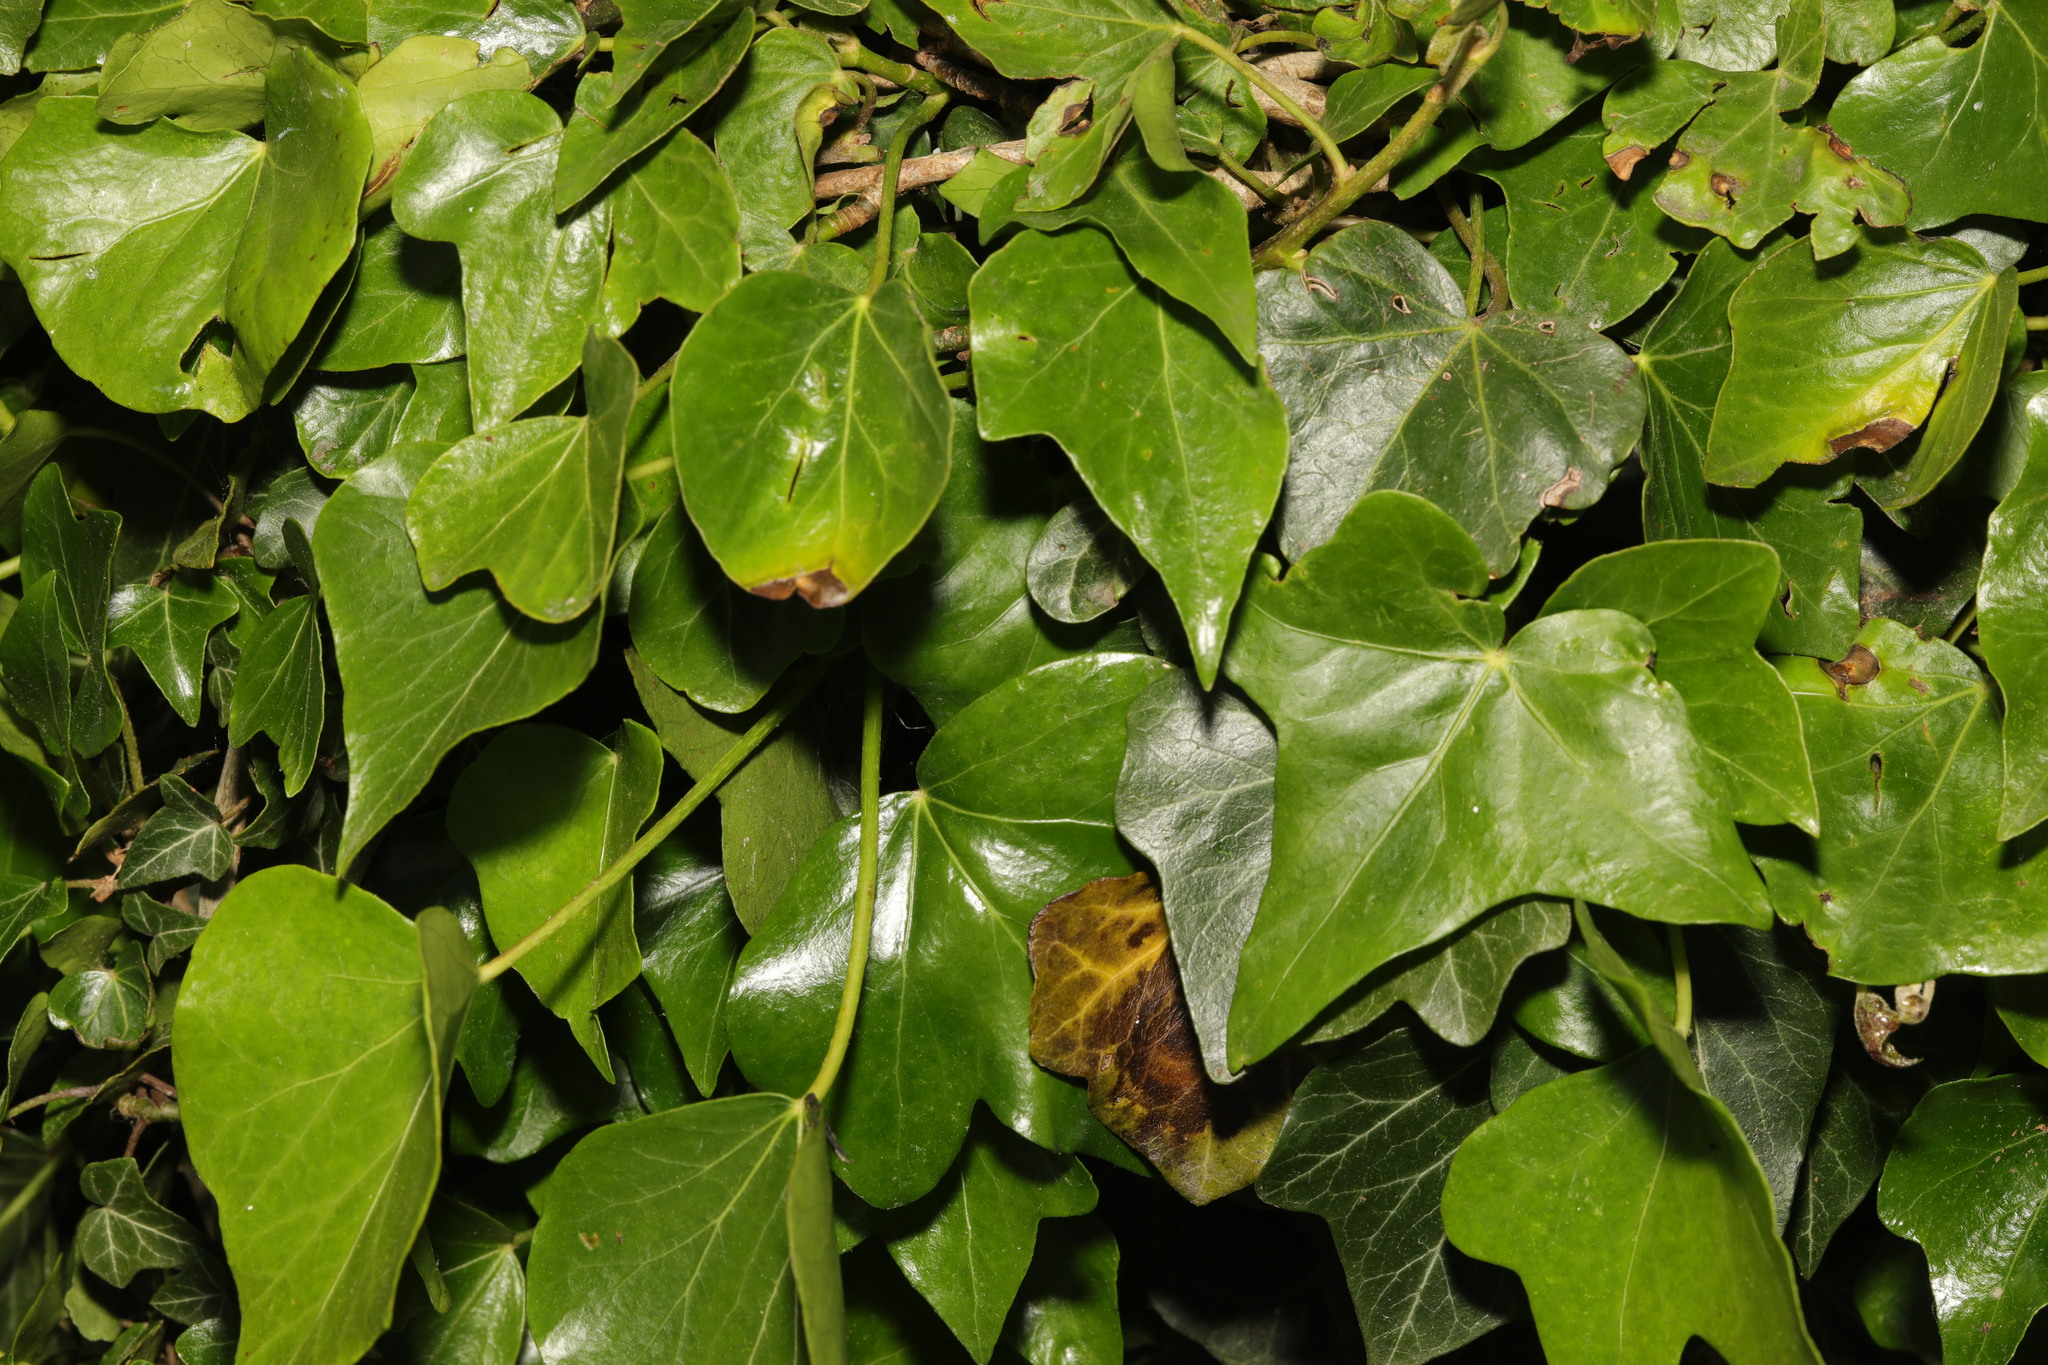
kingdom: Plantae
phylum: Tracheophyta
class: Magnoliopsida
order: Apiales
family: Araliaceae
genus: Hedera
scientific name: Hedera helix
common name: Ivy
